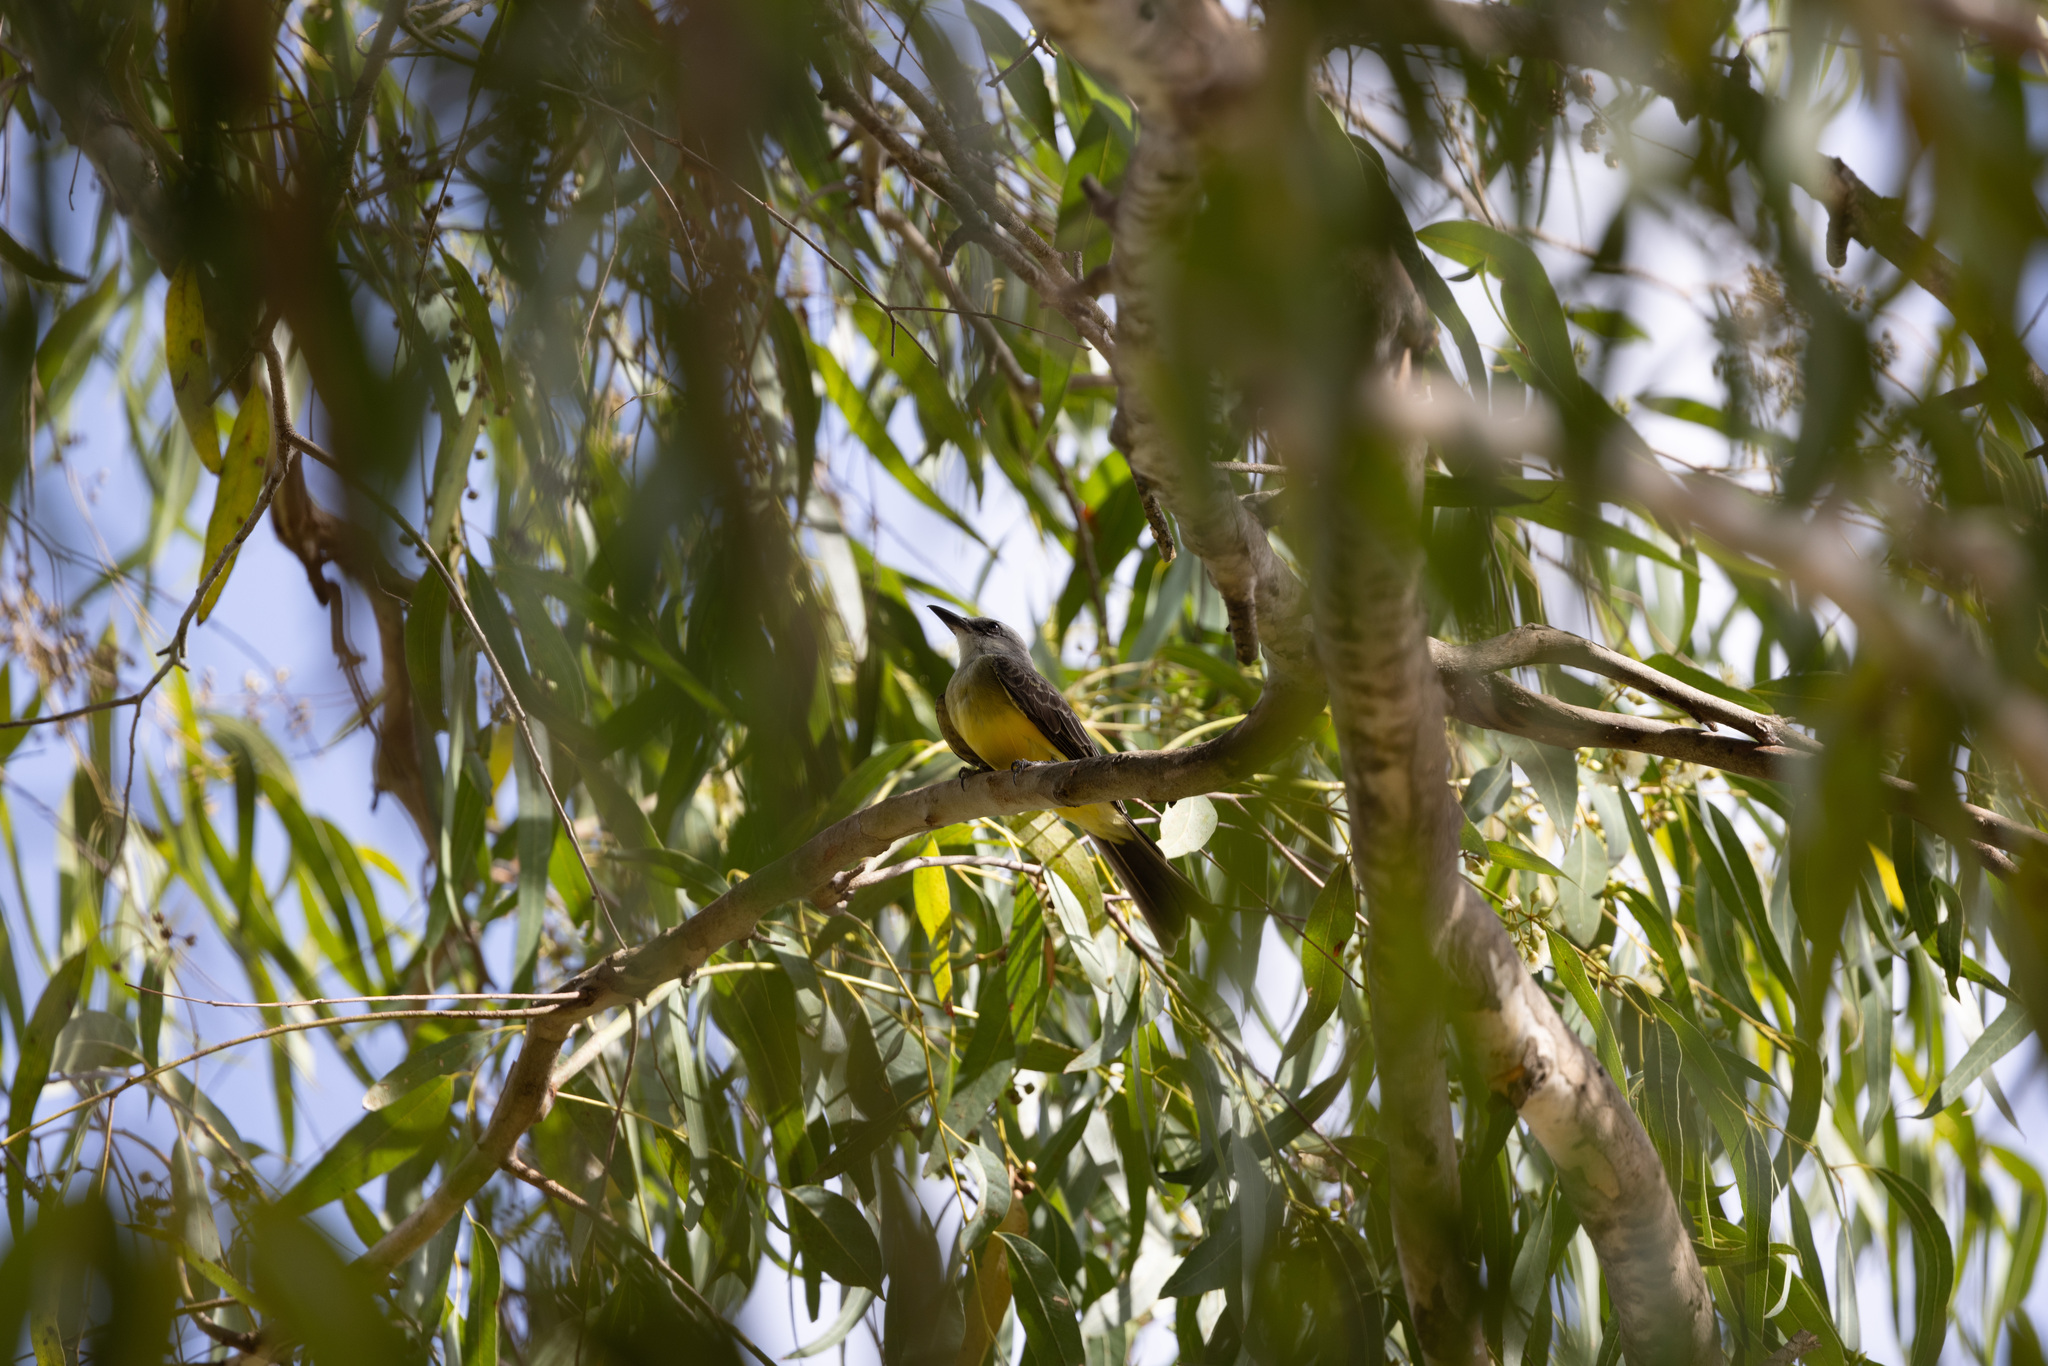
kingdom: Animalia
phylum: Chordata
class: Aves
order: Passeriformes
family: Tyrannidae
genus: Tyrannus
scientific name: Tyrannus melancholicus
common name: Tropical kingbird
